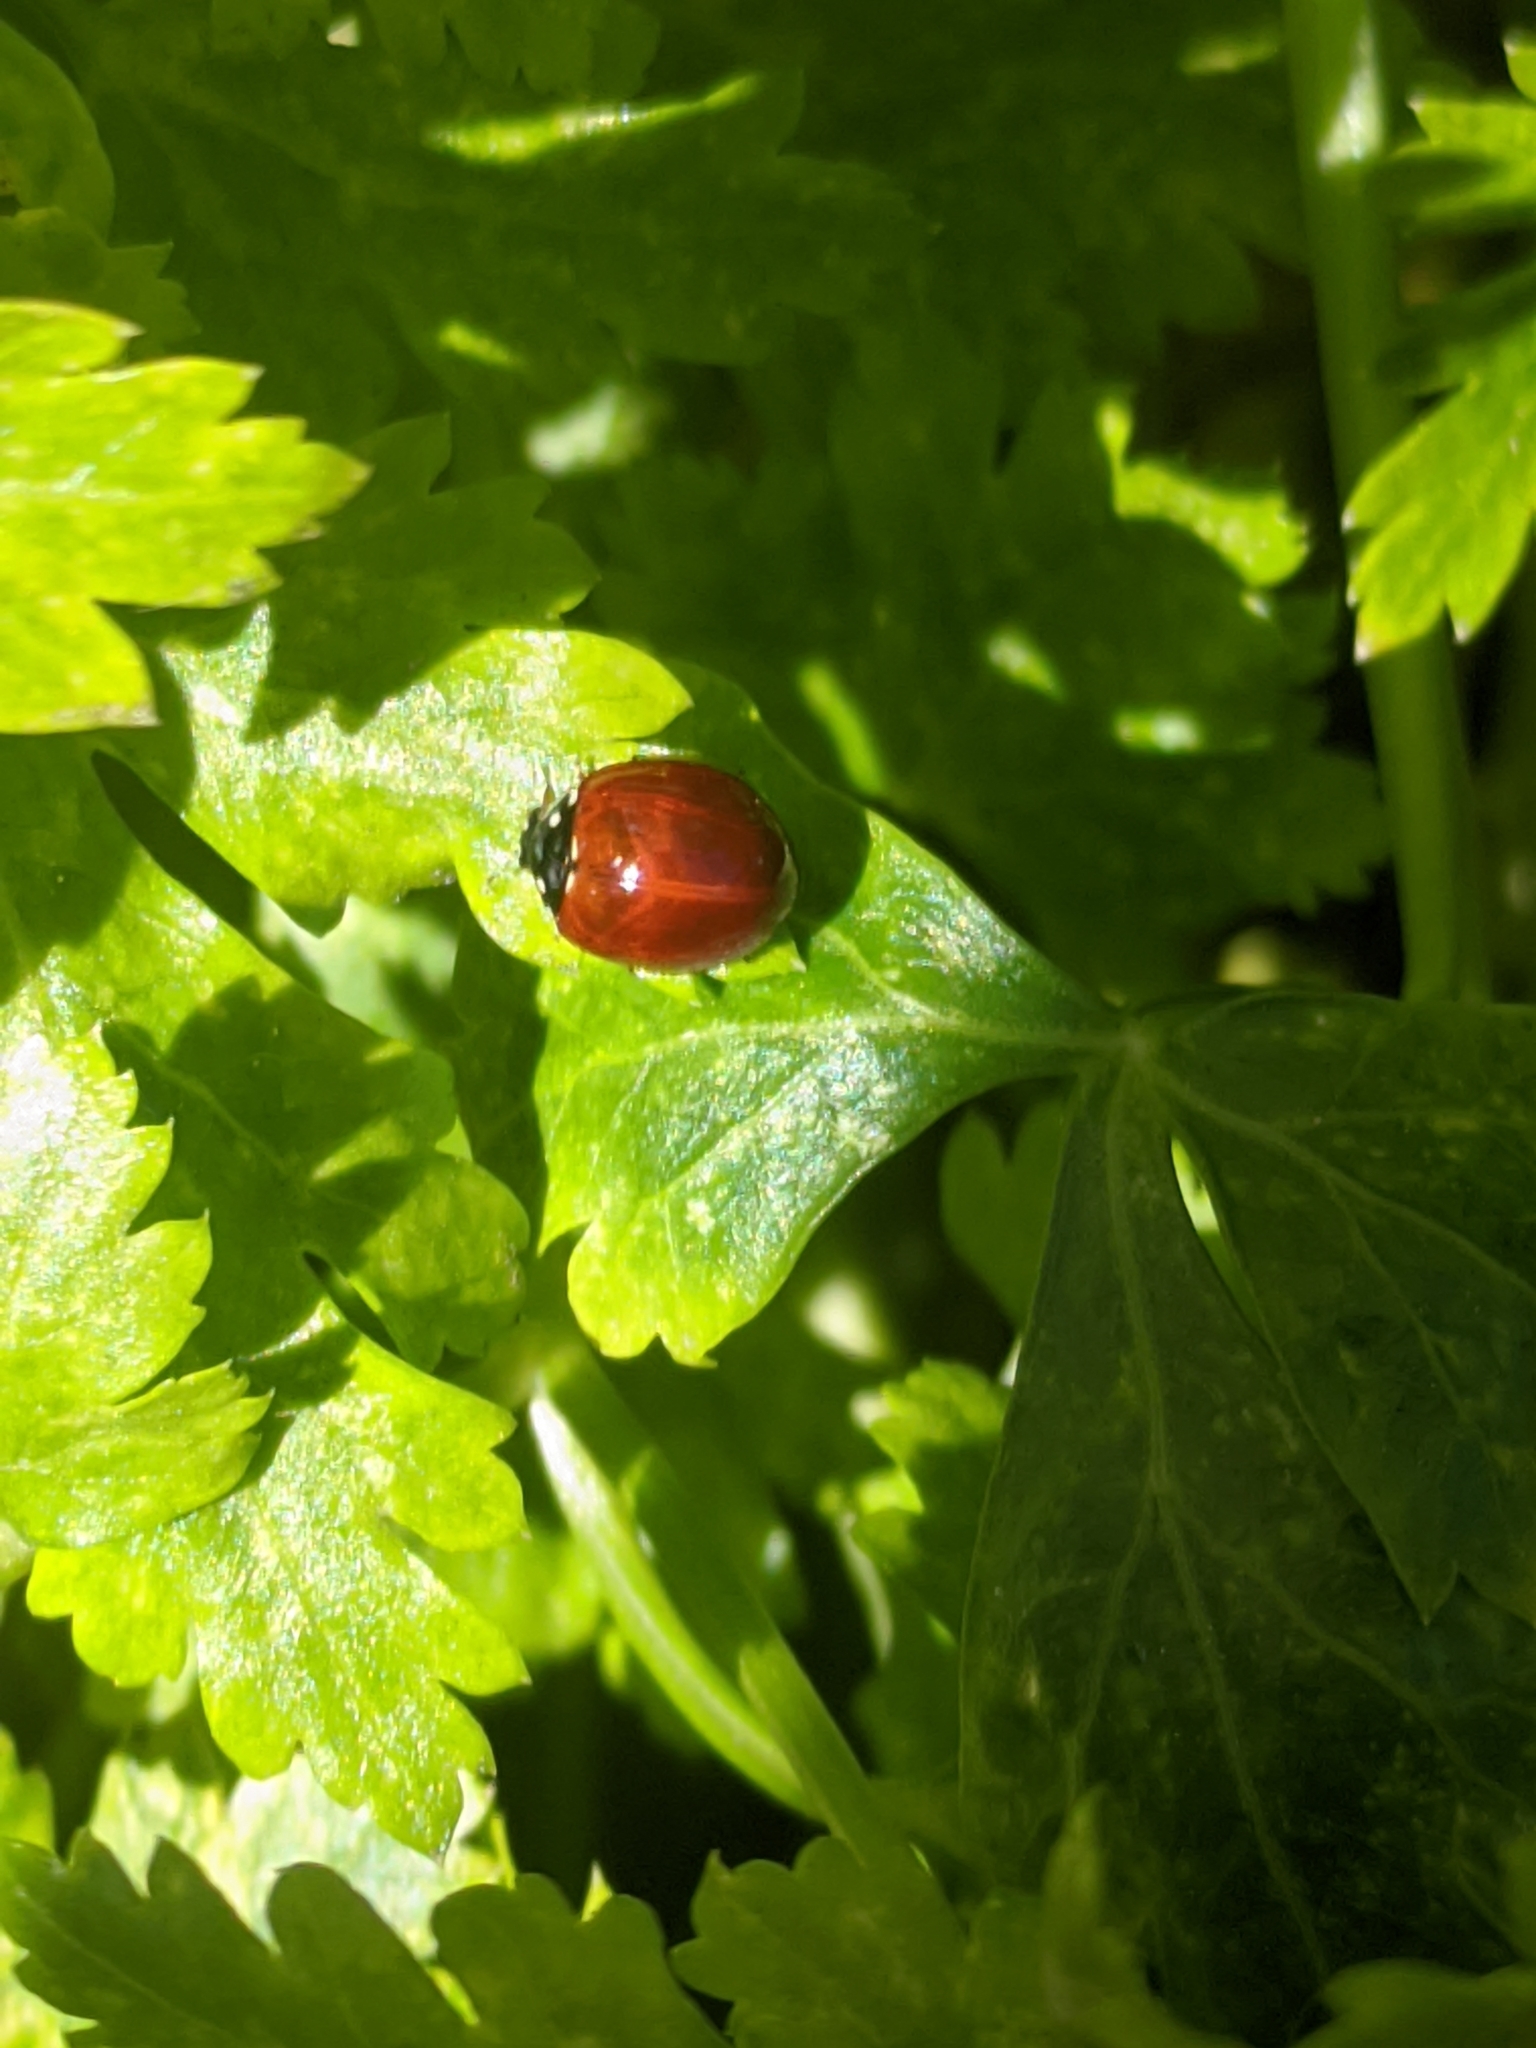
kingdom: Animalia
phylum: Arthropoda
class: Insecta
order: Coleoptera
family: Coccinellidae
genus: Cycloneda
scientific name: Cycloneda sanguinea
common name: Ladybird beetle
